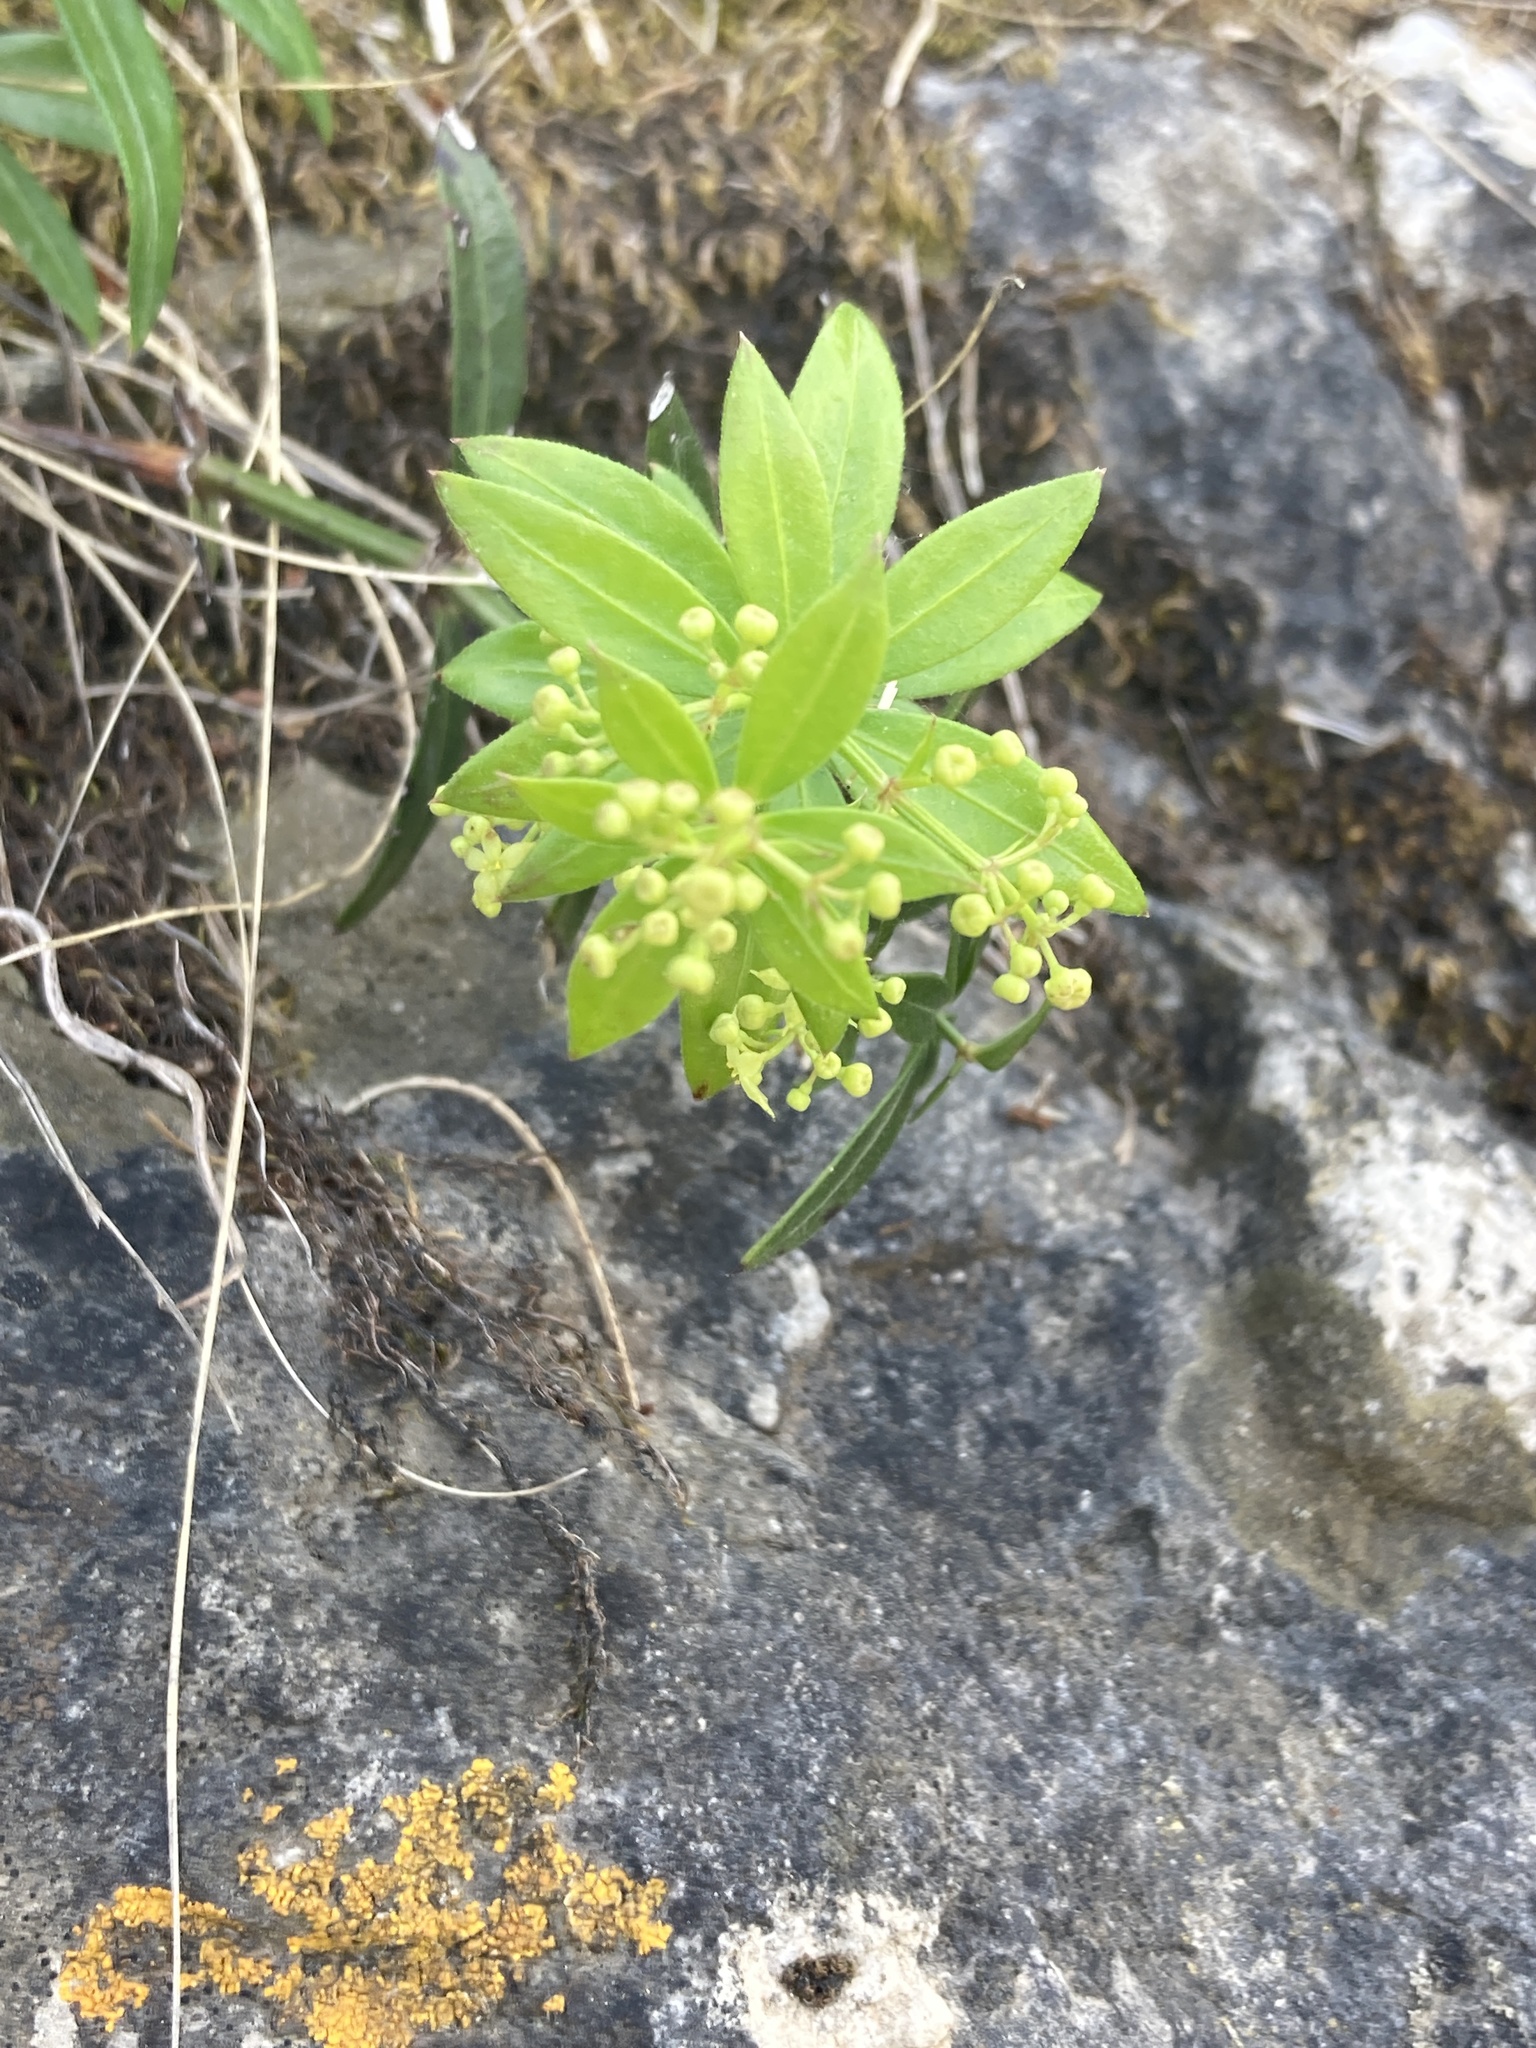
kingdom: Plantae
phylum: Tracheophyta
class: Magnoliopsida
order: Gentianales
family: Rubiaceae
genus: Rubia
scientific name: Rubia peregrina
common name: Wild madder
